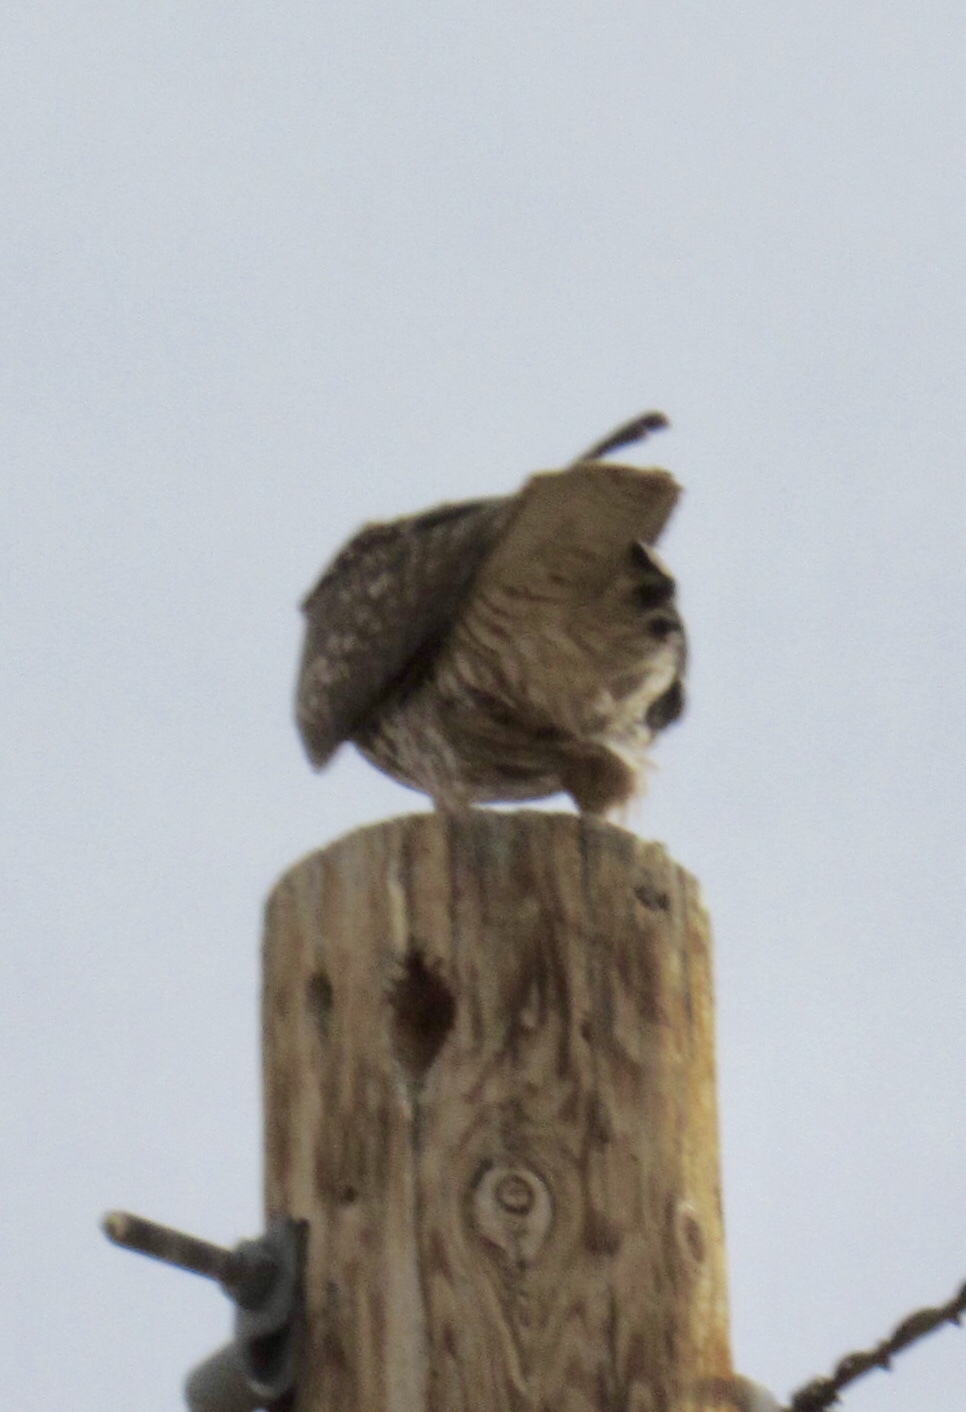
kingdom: Animalia
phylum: Chordata
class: Aves
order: Accipitriformes
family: Accipitridae
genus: Buteo
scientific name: Buteo jamaicensis
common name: Red-tailed hawk
